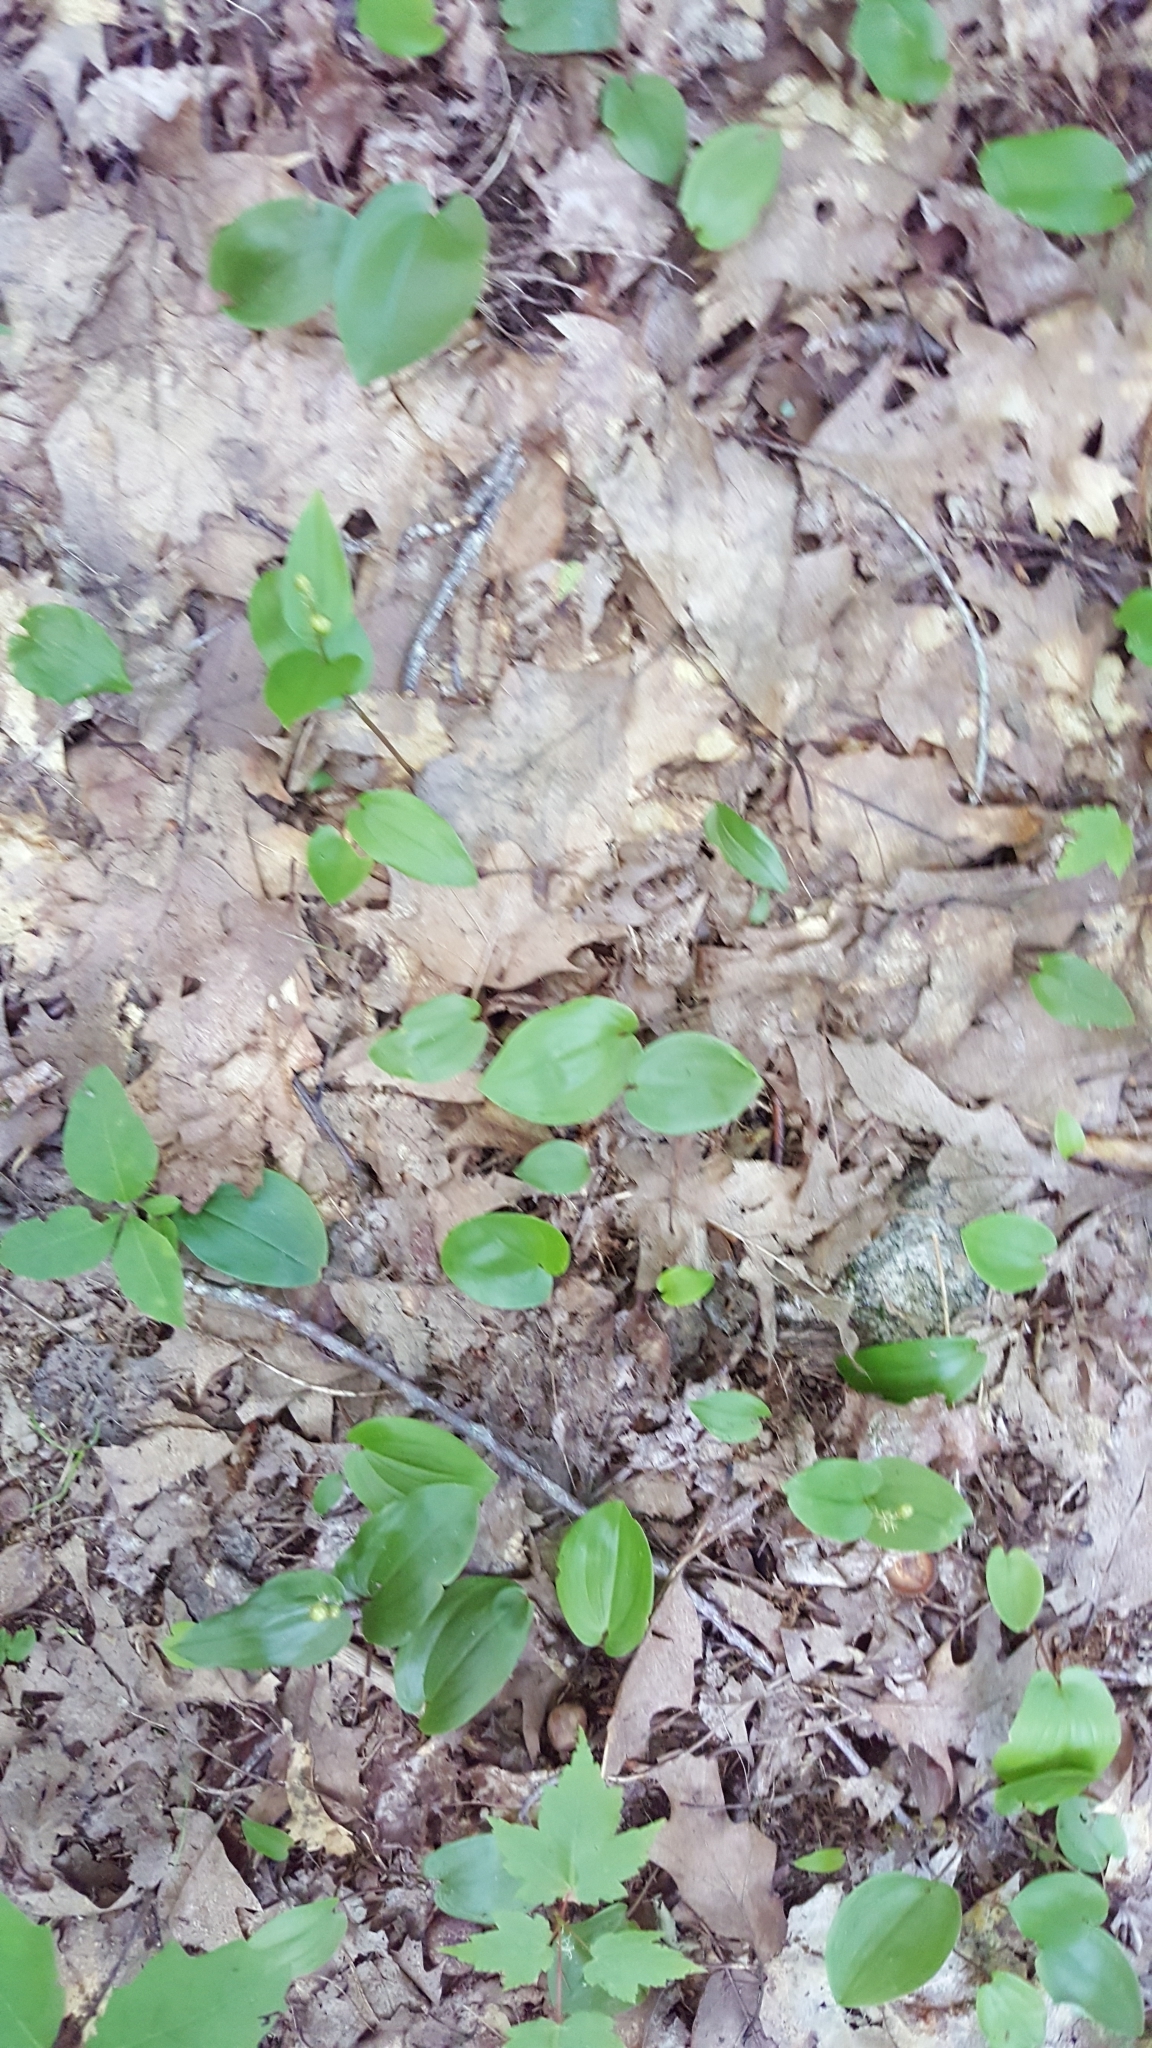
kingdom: Plantae
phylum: Tracheophyta
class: Liliopsida
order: Asparagales
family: Asparagaceae
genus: Maianthemum
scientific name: Maianthemum canadense
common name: False lily-of-the-valley
